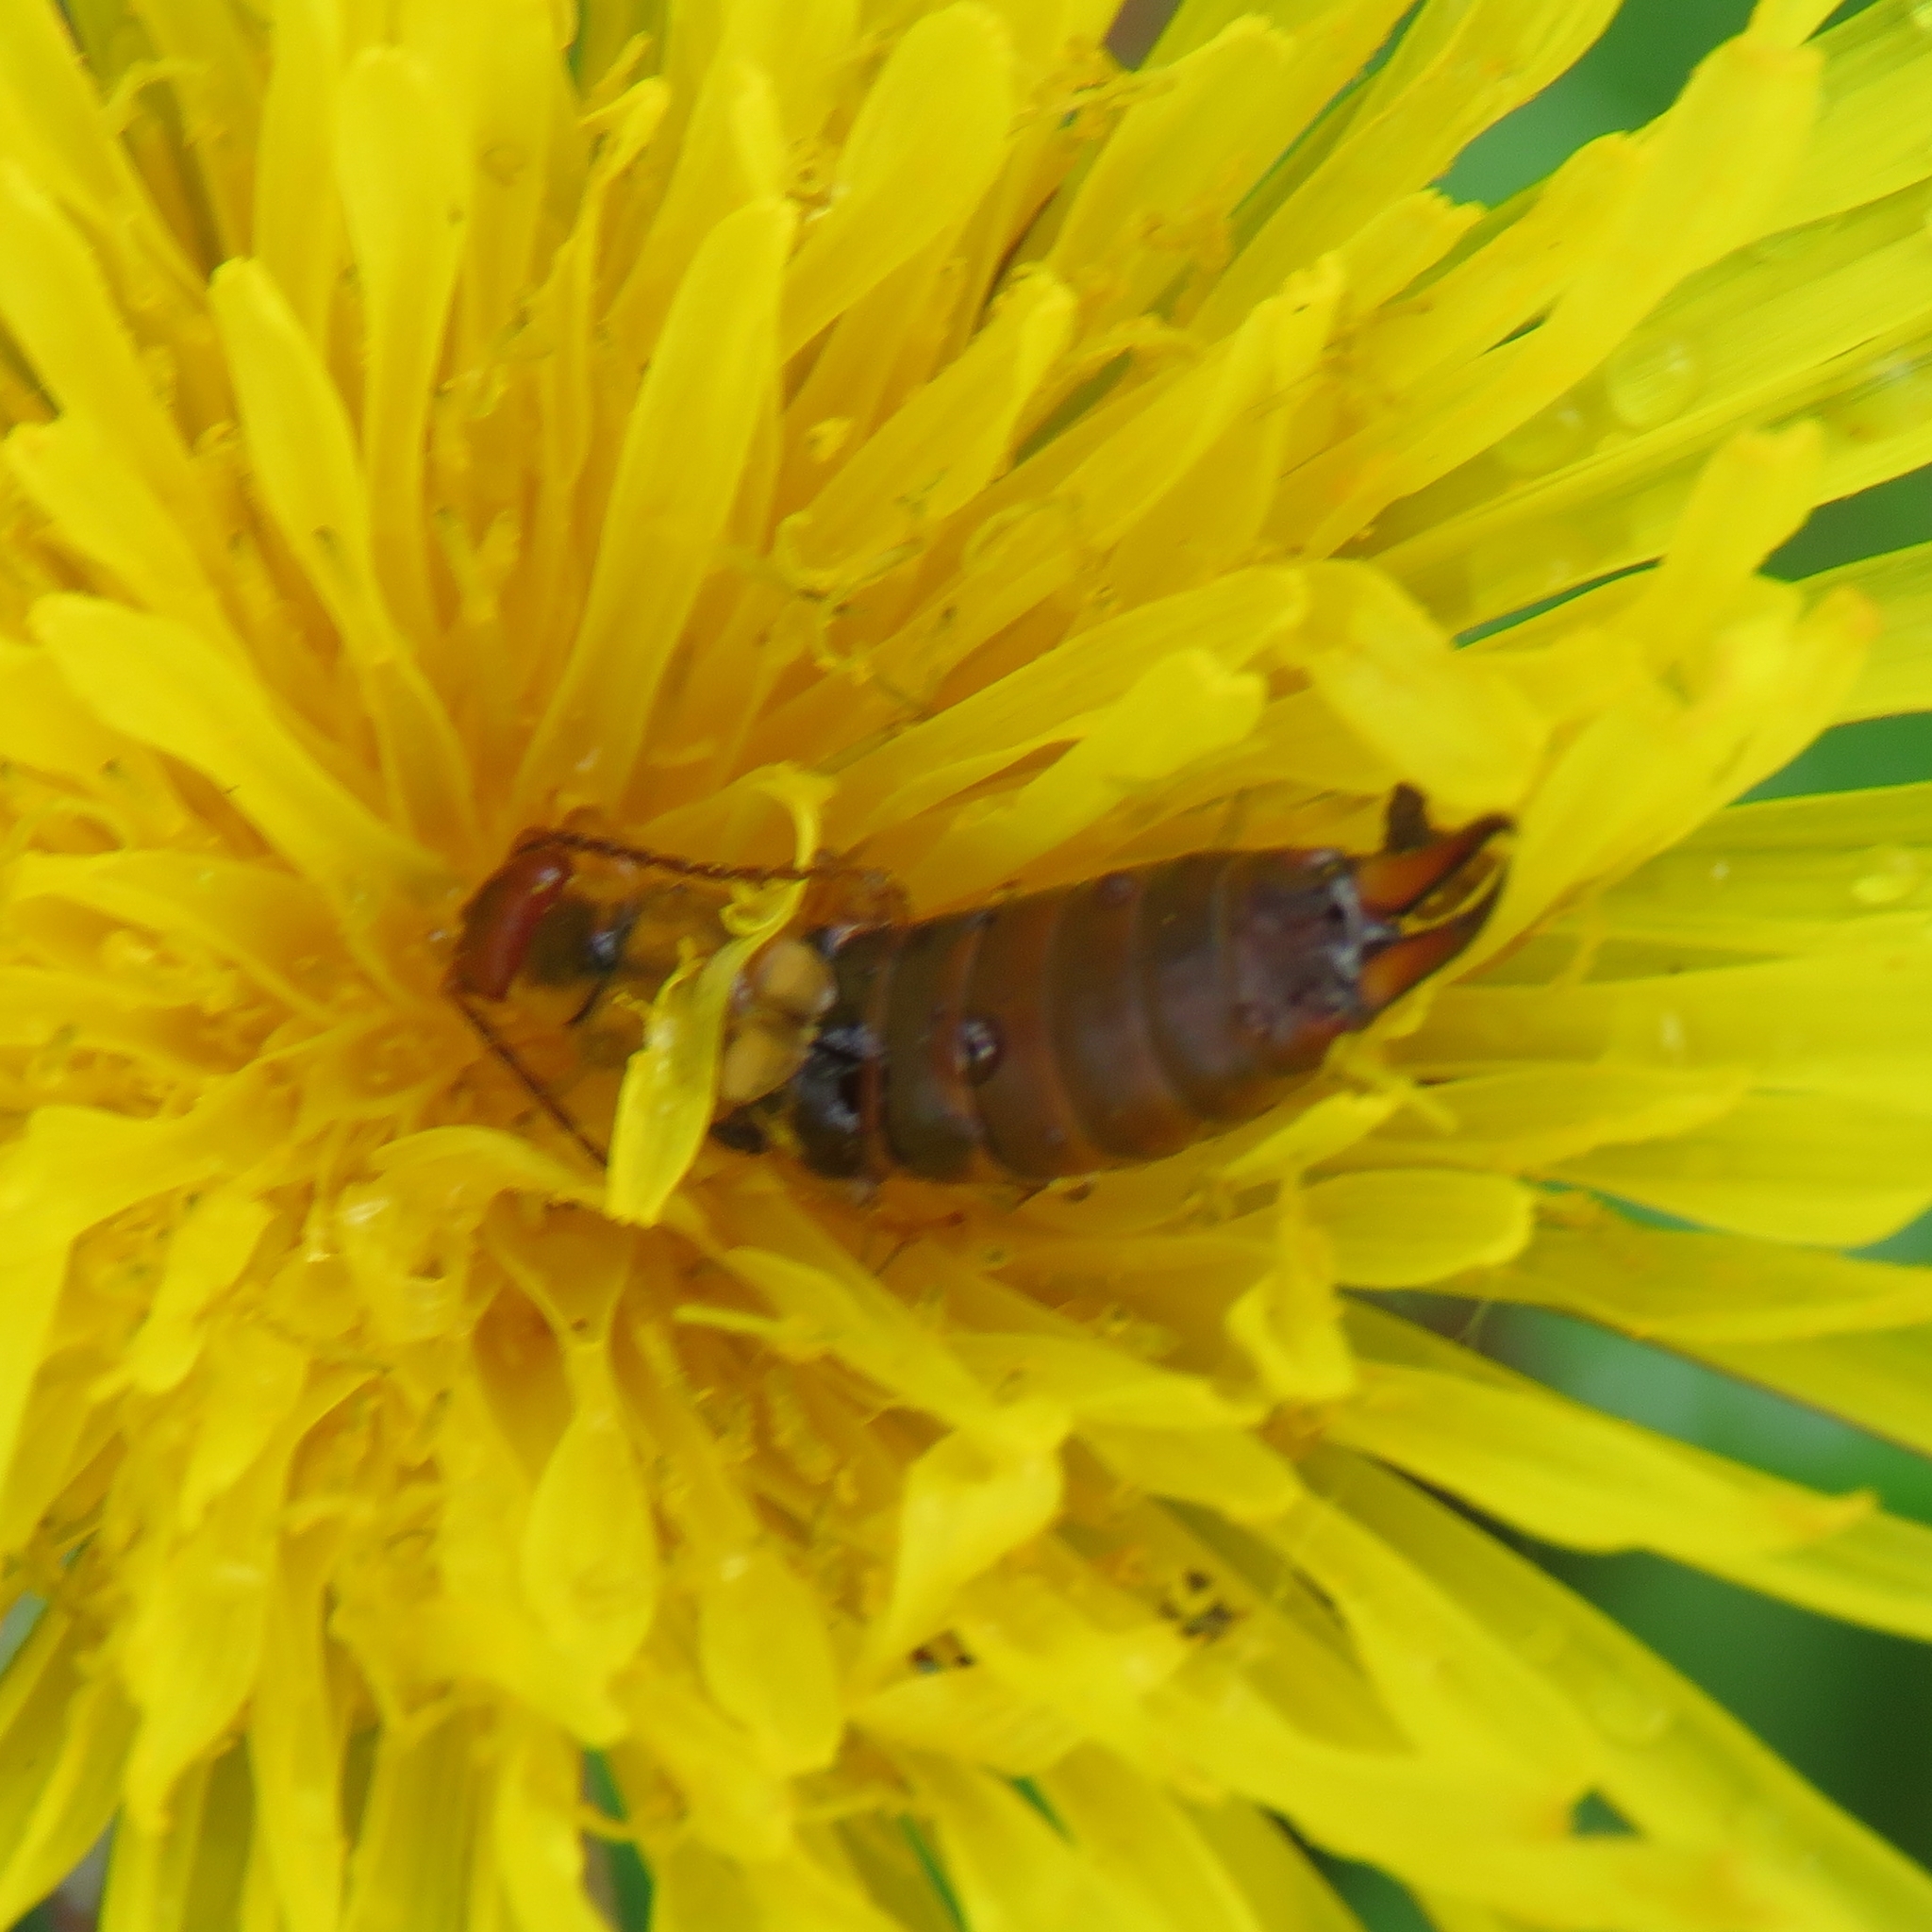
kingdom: Animalia
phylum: Arthropoda
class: Insecta
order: Dermaptera
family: Forficulidae
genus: Forficula
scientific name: Forficula
